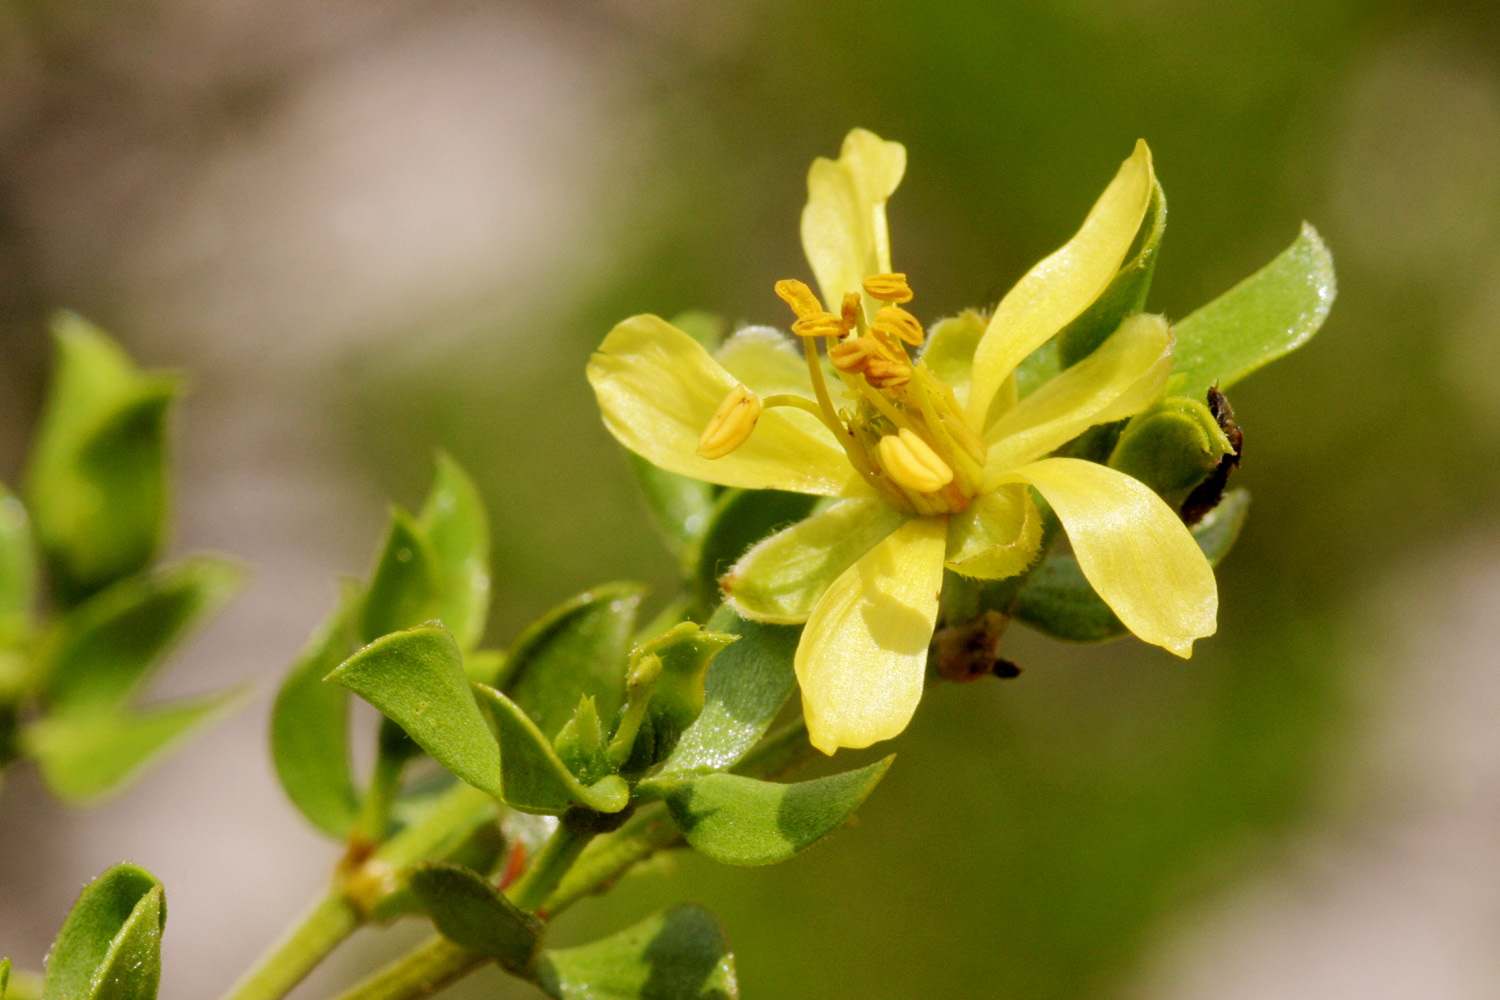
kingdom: Plantae
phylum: Tracheophyta
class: Magnoliopsida
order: Zygophyllales
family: Zygophyllaceae
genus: Larrea
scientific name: Larrea tridentata
